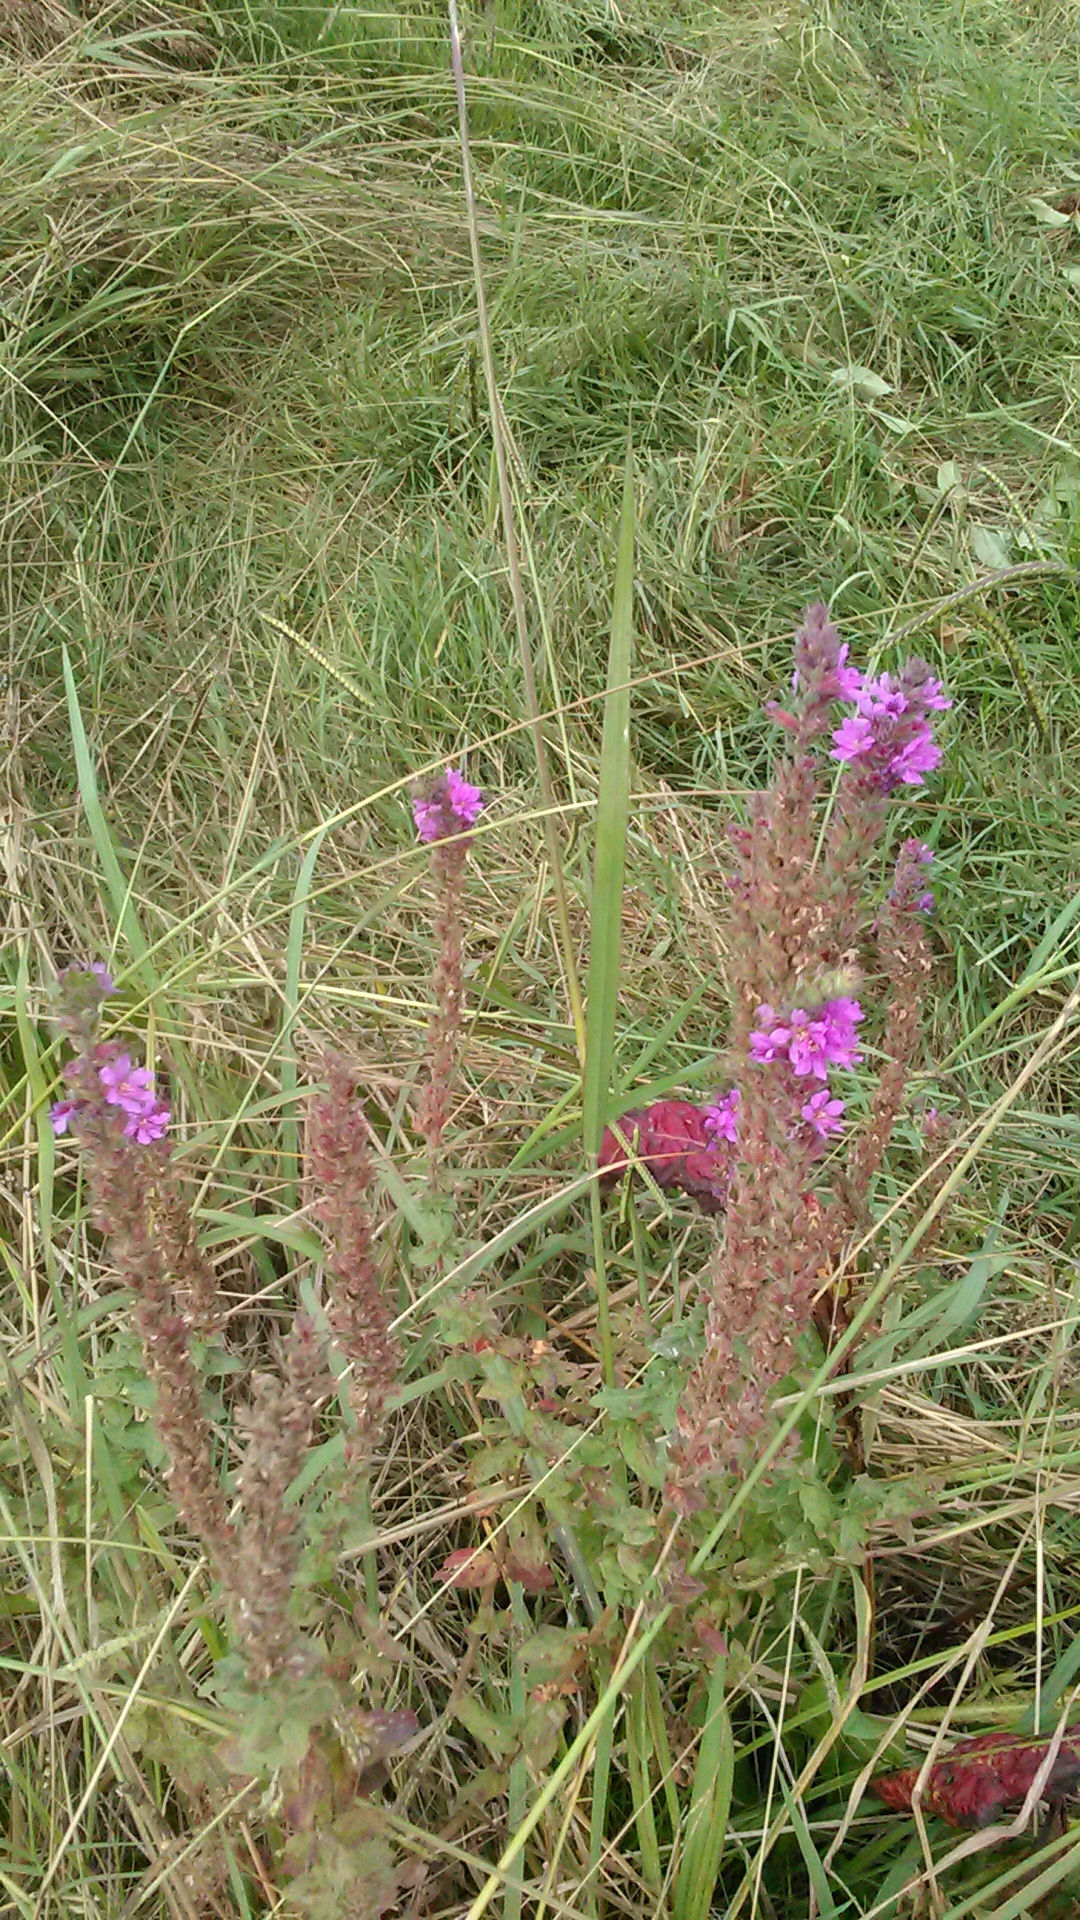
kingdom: Plantae
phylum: Tracheophyta
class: Magnoliopsida
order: Myrtales
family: Lythraceae
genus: Lythrum
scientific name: Lythrum salicaria
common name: Purple loosestrife
